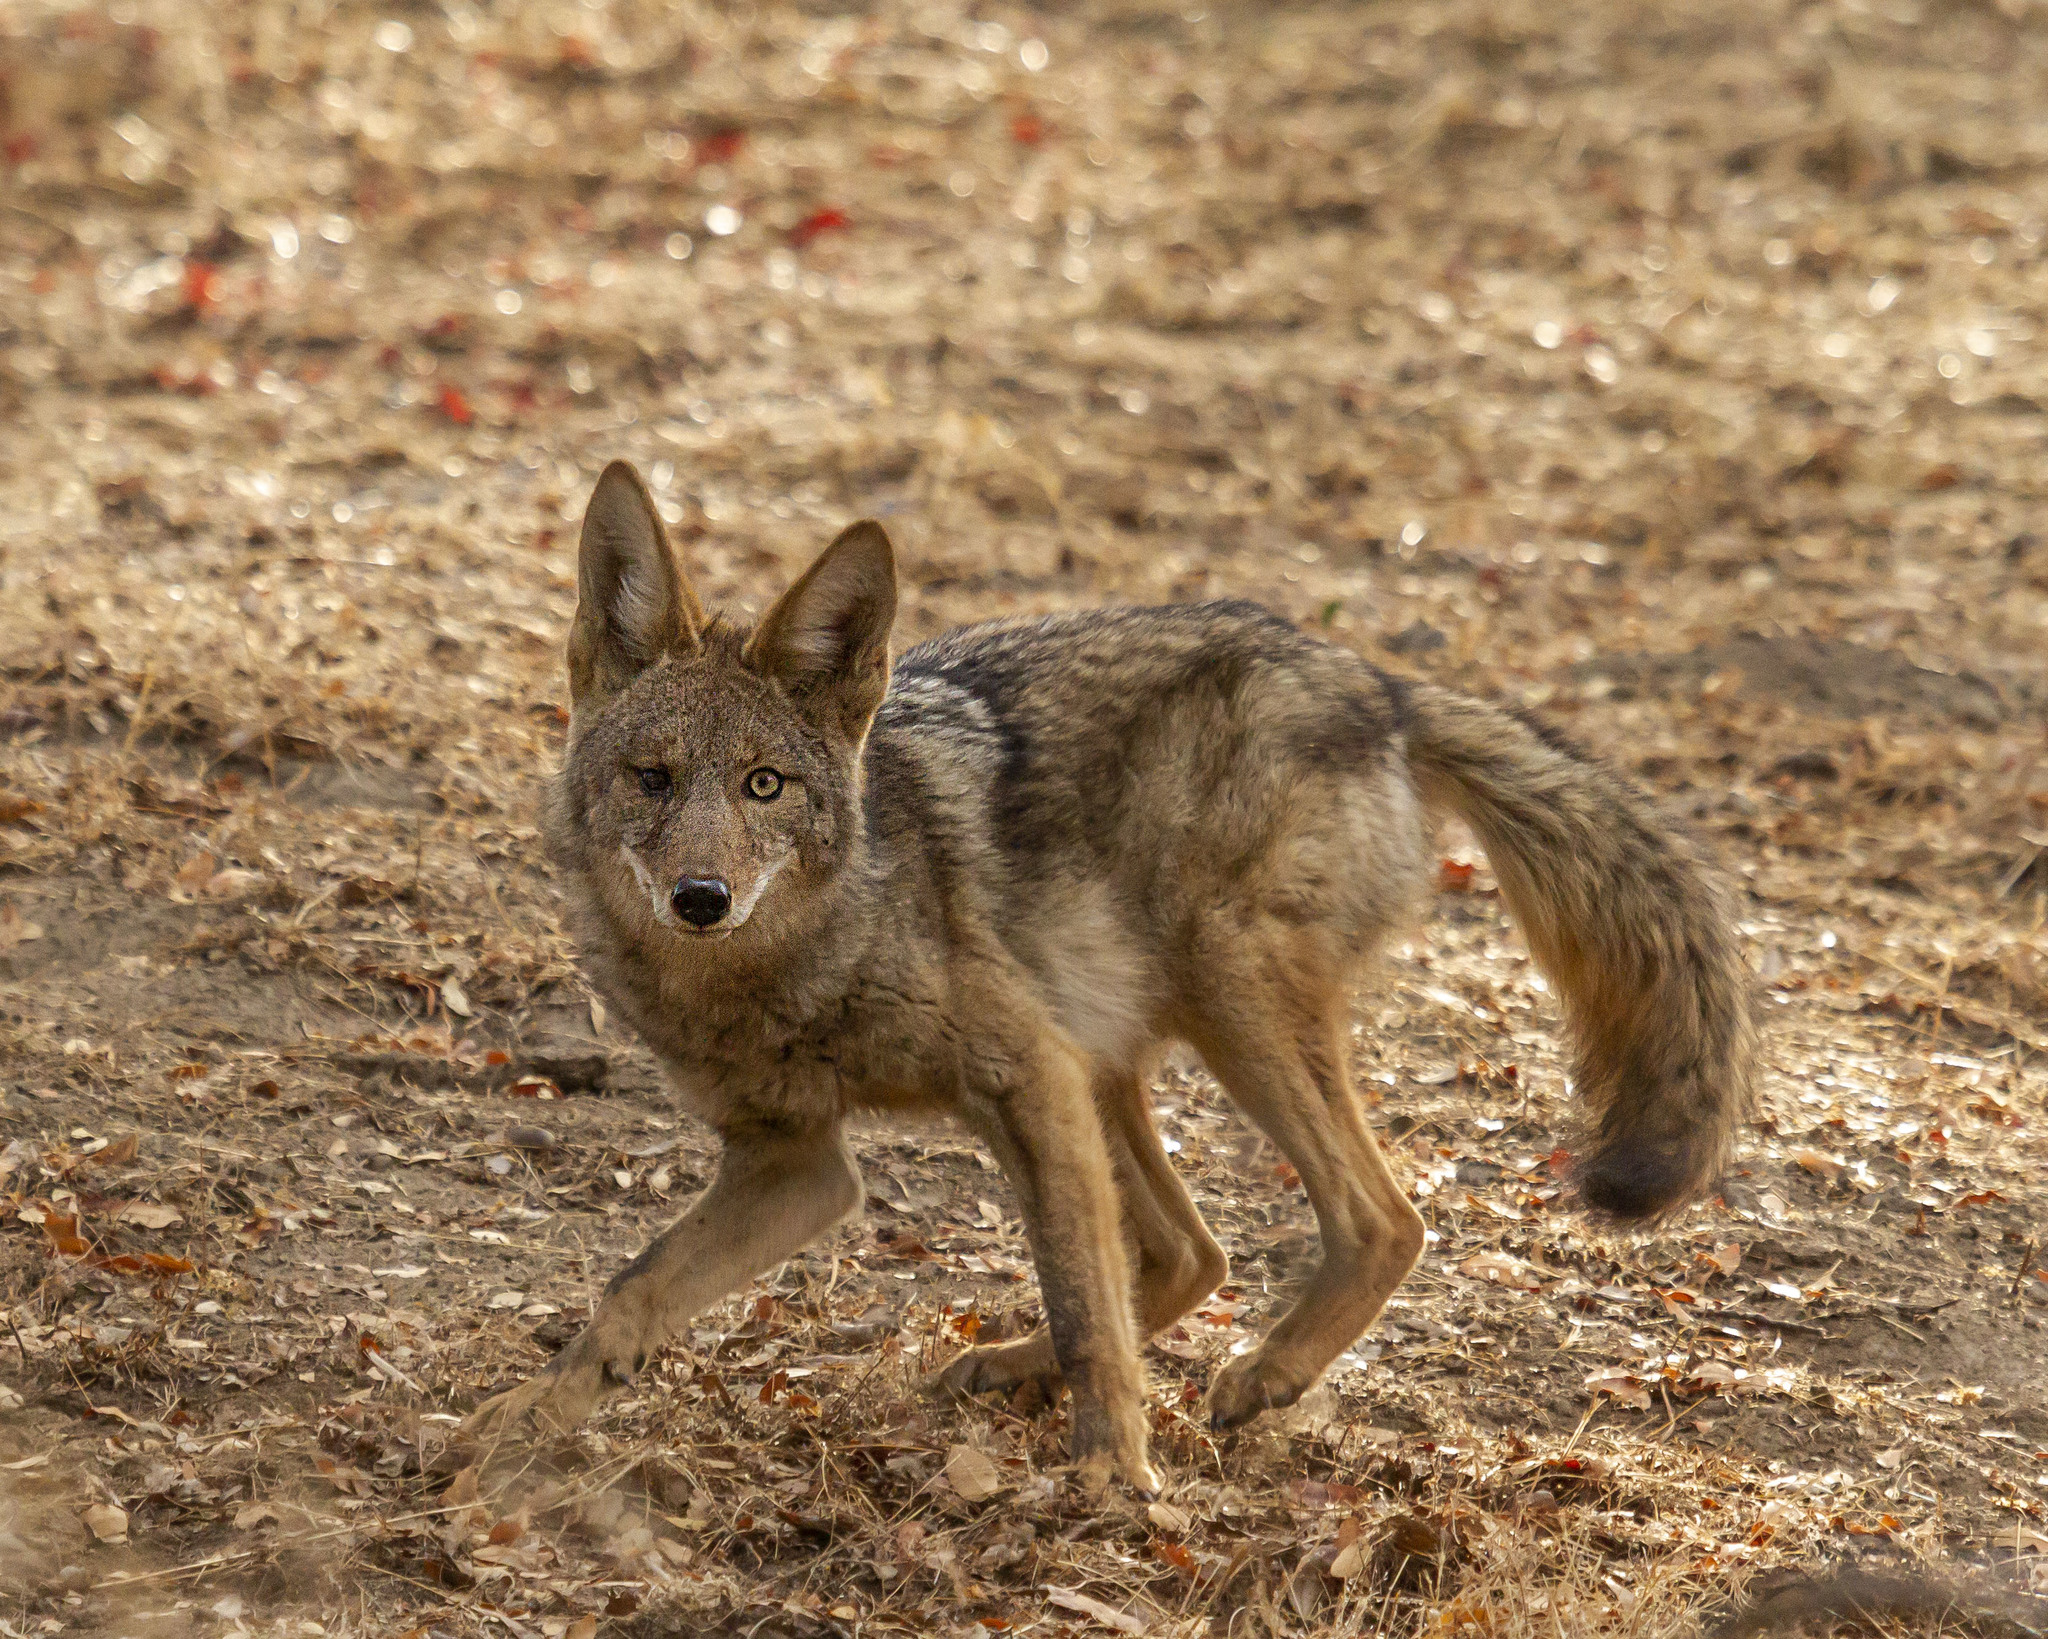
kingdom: Animalia
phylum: Chordata
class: Mammalia
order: Carnivora
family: Canidae
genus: Canis
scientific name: Canis latrans
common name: Coyote
